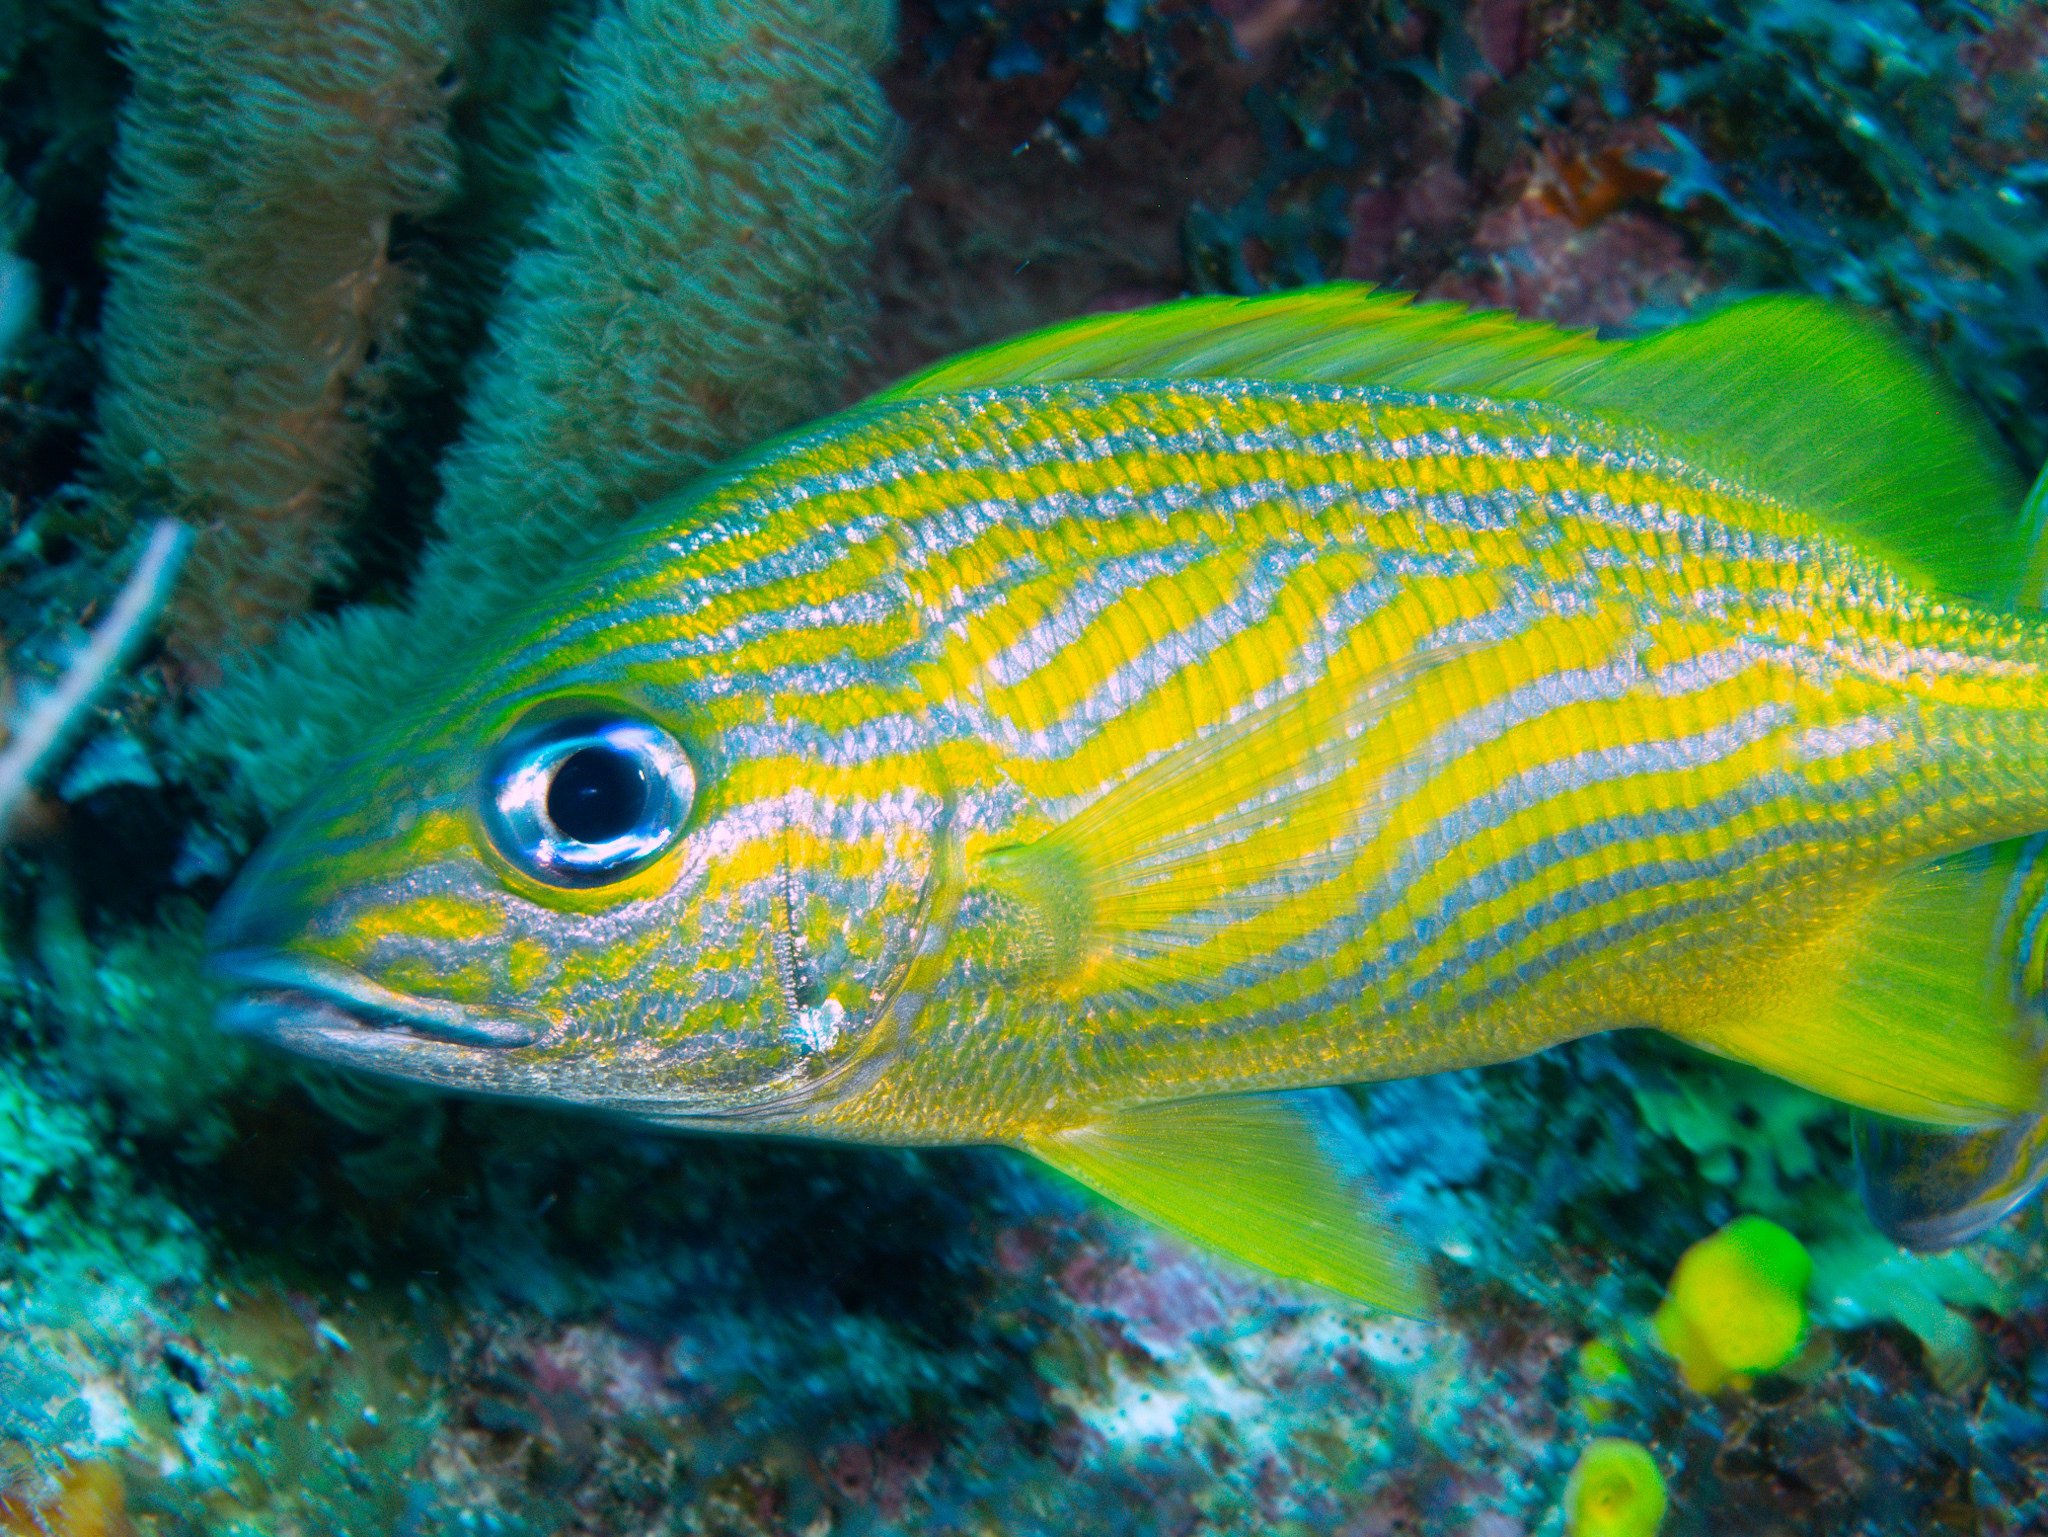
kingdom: Animalia
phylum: Chordata
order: Perciformes
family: Haemulidae
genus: Haemulon
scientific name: Haemulon flavolineatum
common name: French grunt
